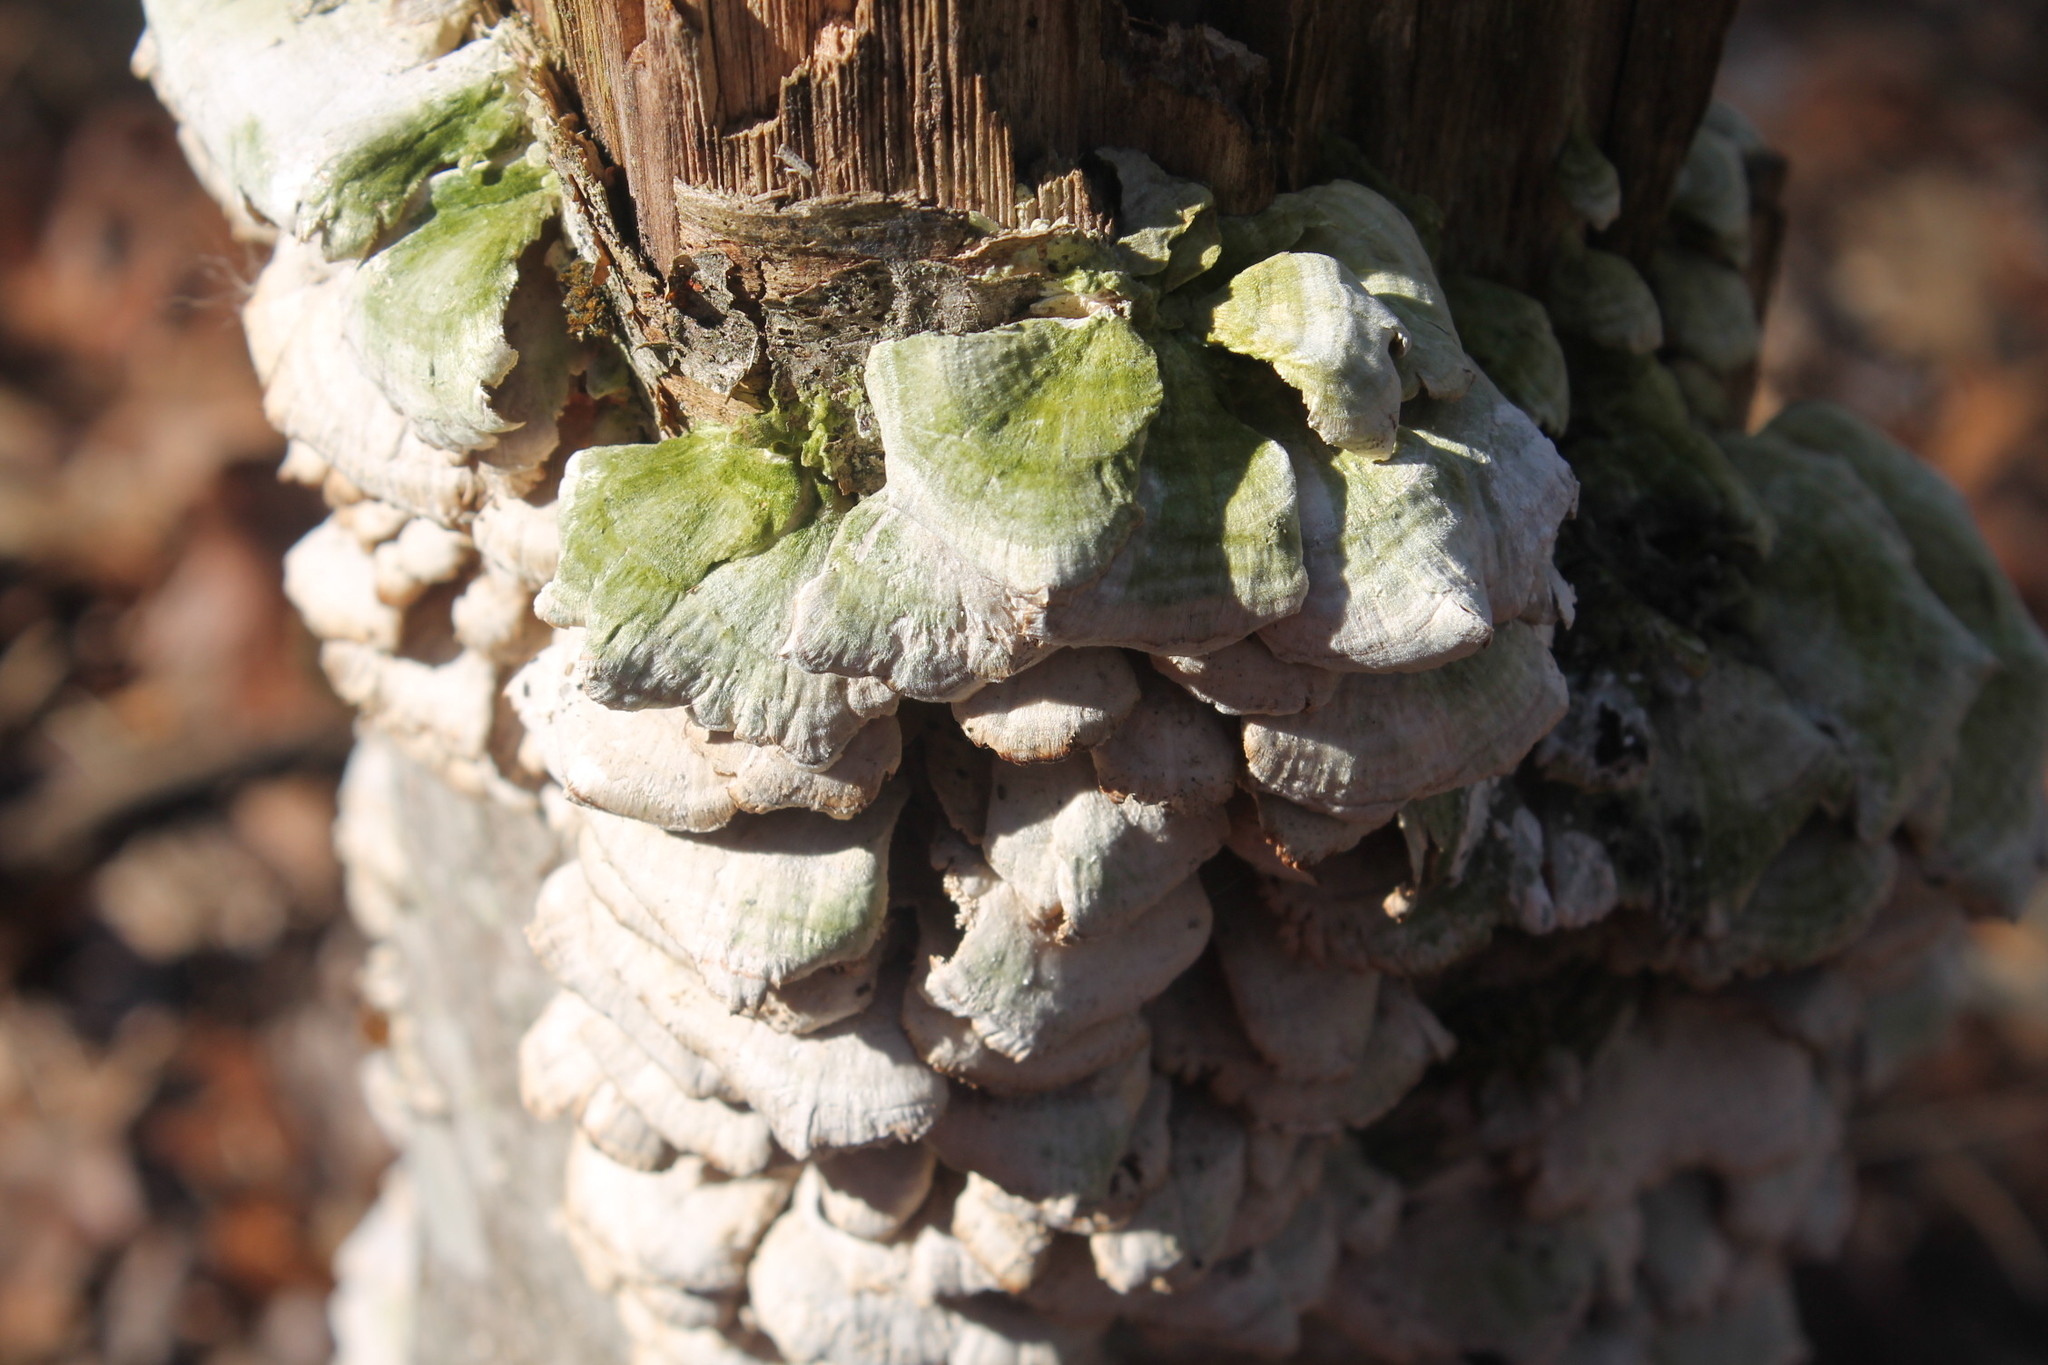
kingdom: Fungi
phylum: Basidiomycota
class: Agaricomycetes
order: Hymenochaetales
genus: Trichaptum
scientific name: Trichaptum biforme
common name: Violet-toothed polypore
